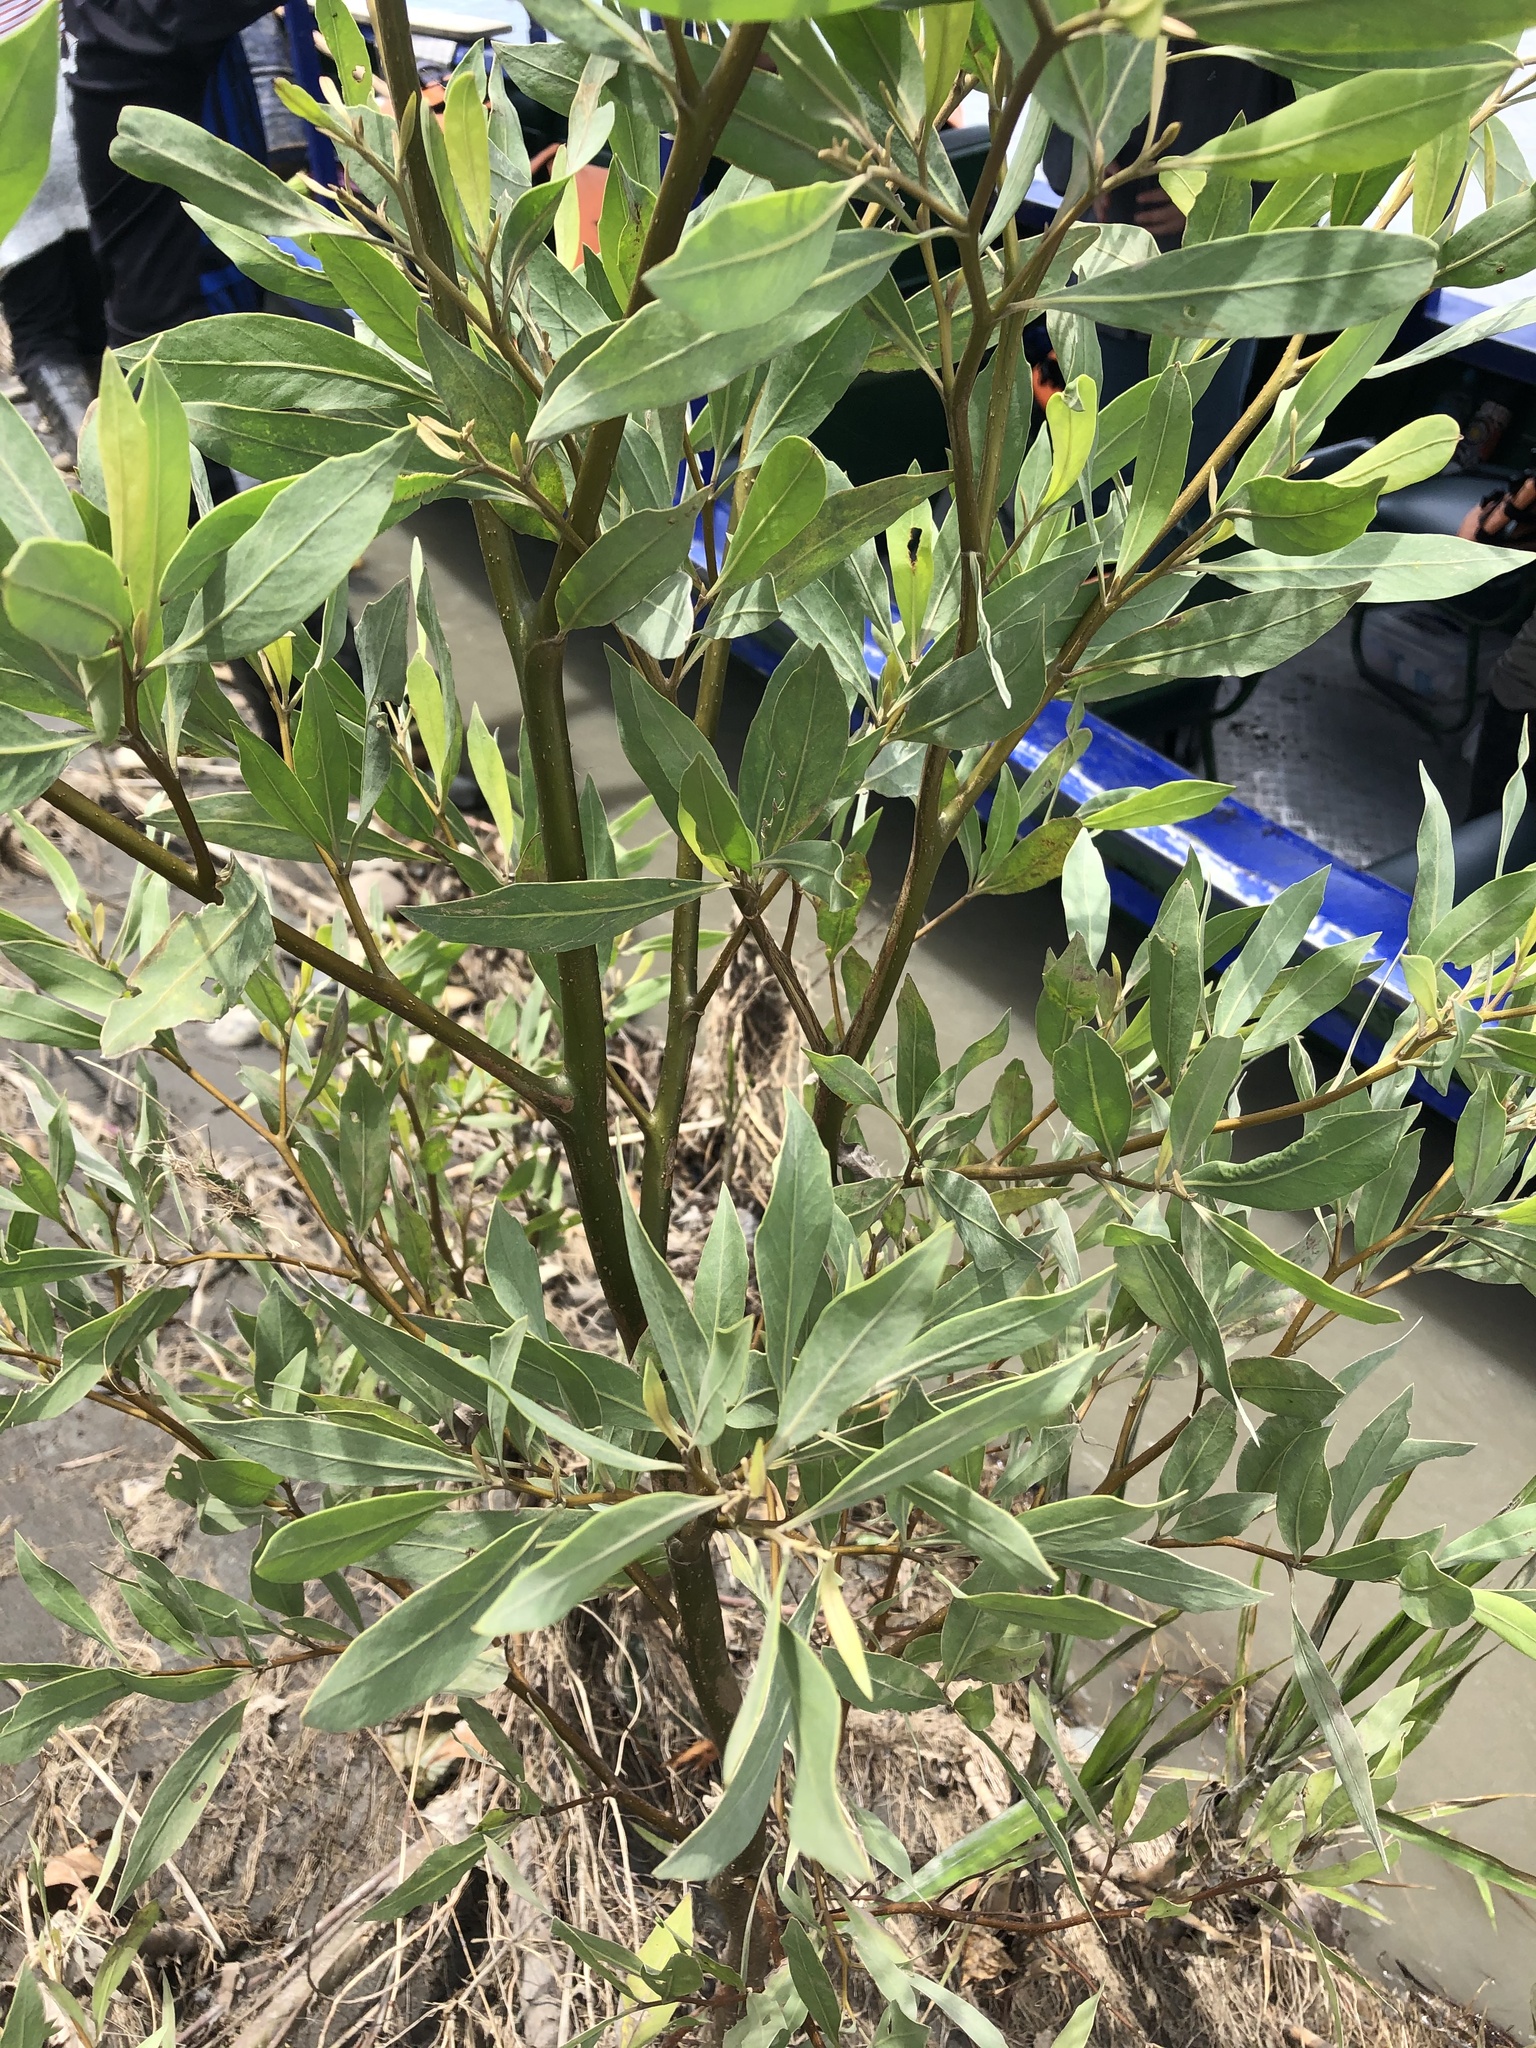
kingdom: Plantae
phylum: Tracheophyta
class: Magnoliopsida
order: Asterales
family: Asteraceae
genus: Tessaria
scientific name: Tessaria integrifolia
